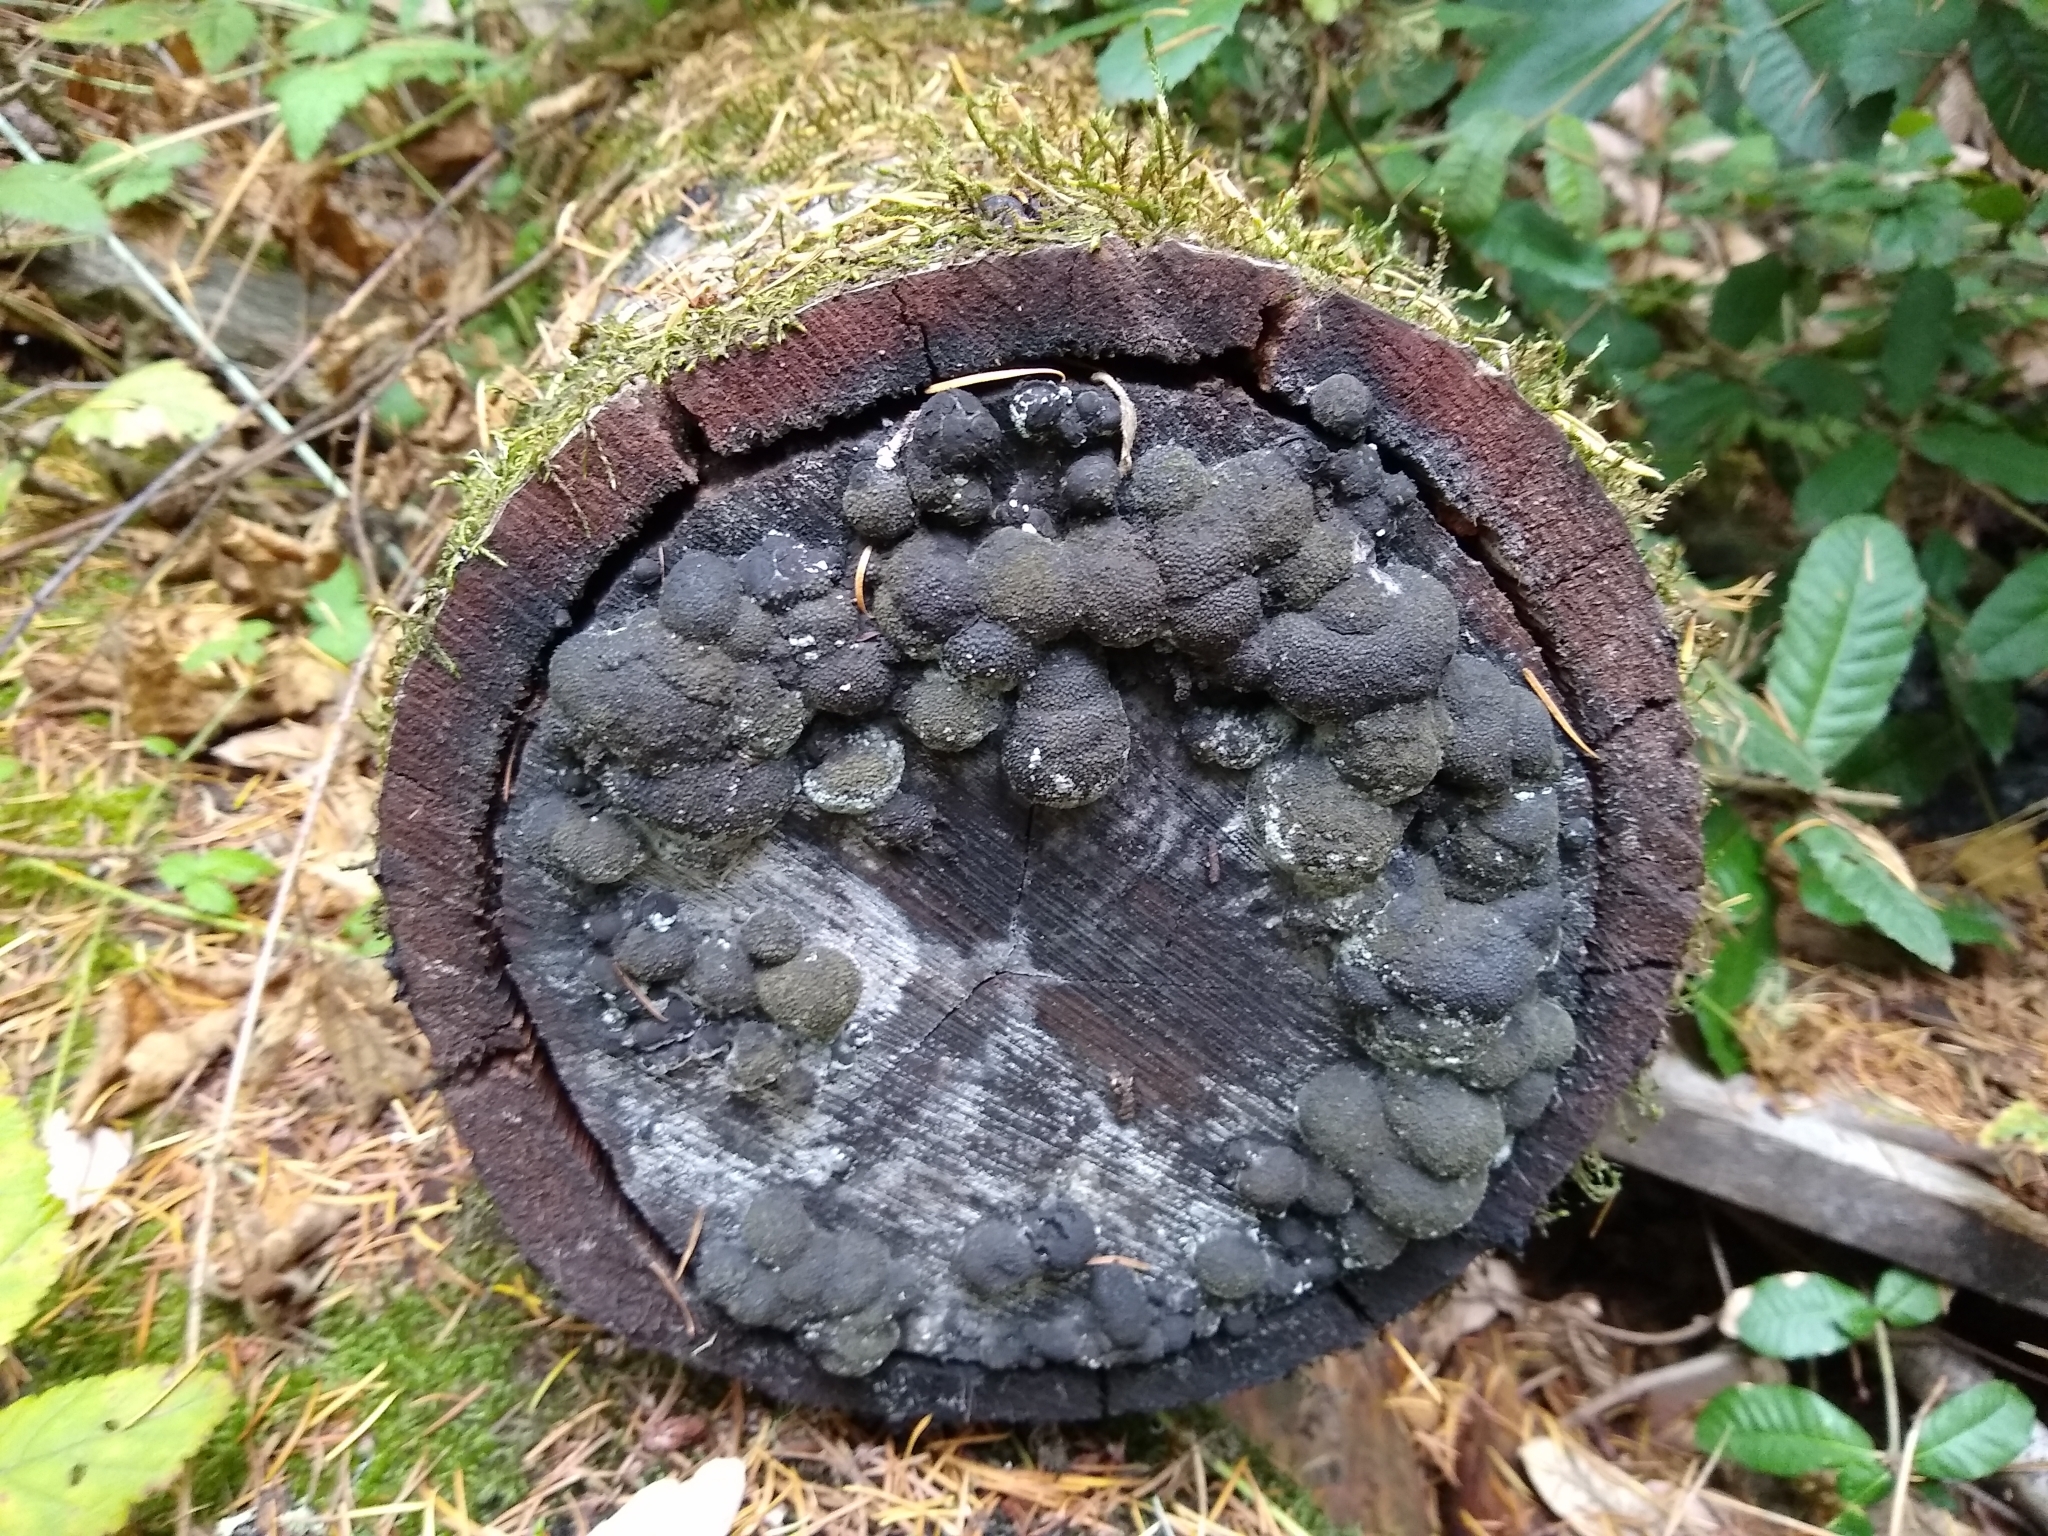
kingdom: Fungi
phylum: Ascomycota
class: Sordariomycetes
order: Xylariales
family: Hypoxylaceae
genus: Annulohypoxylon
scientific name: Annulohypoxylon thouarsianum
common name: Cramp balls
